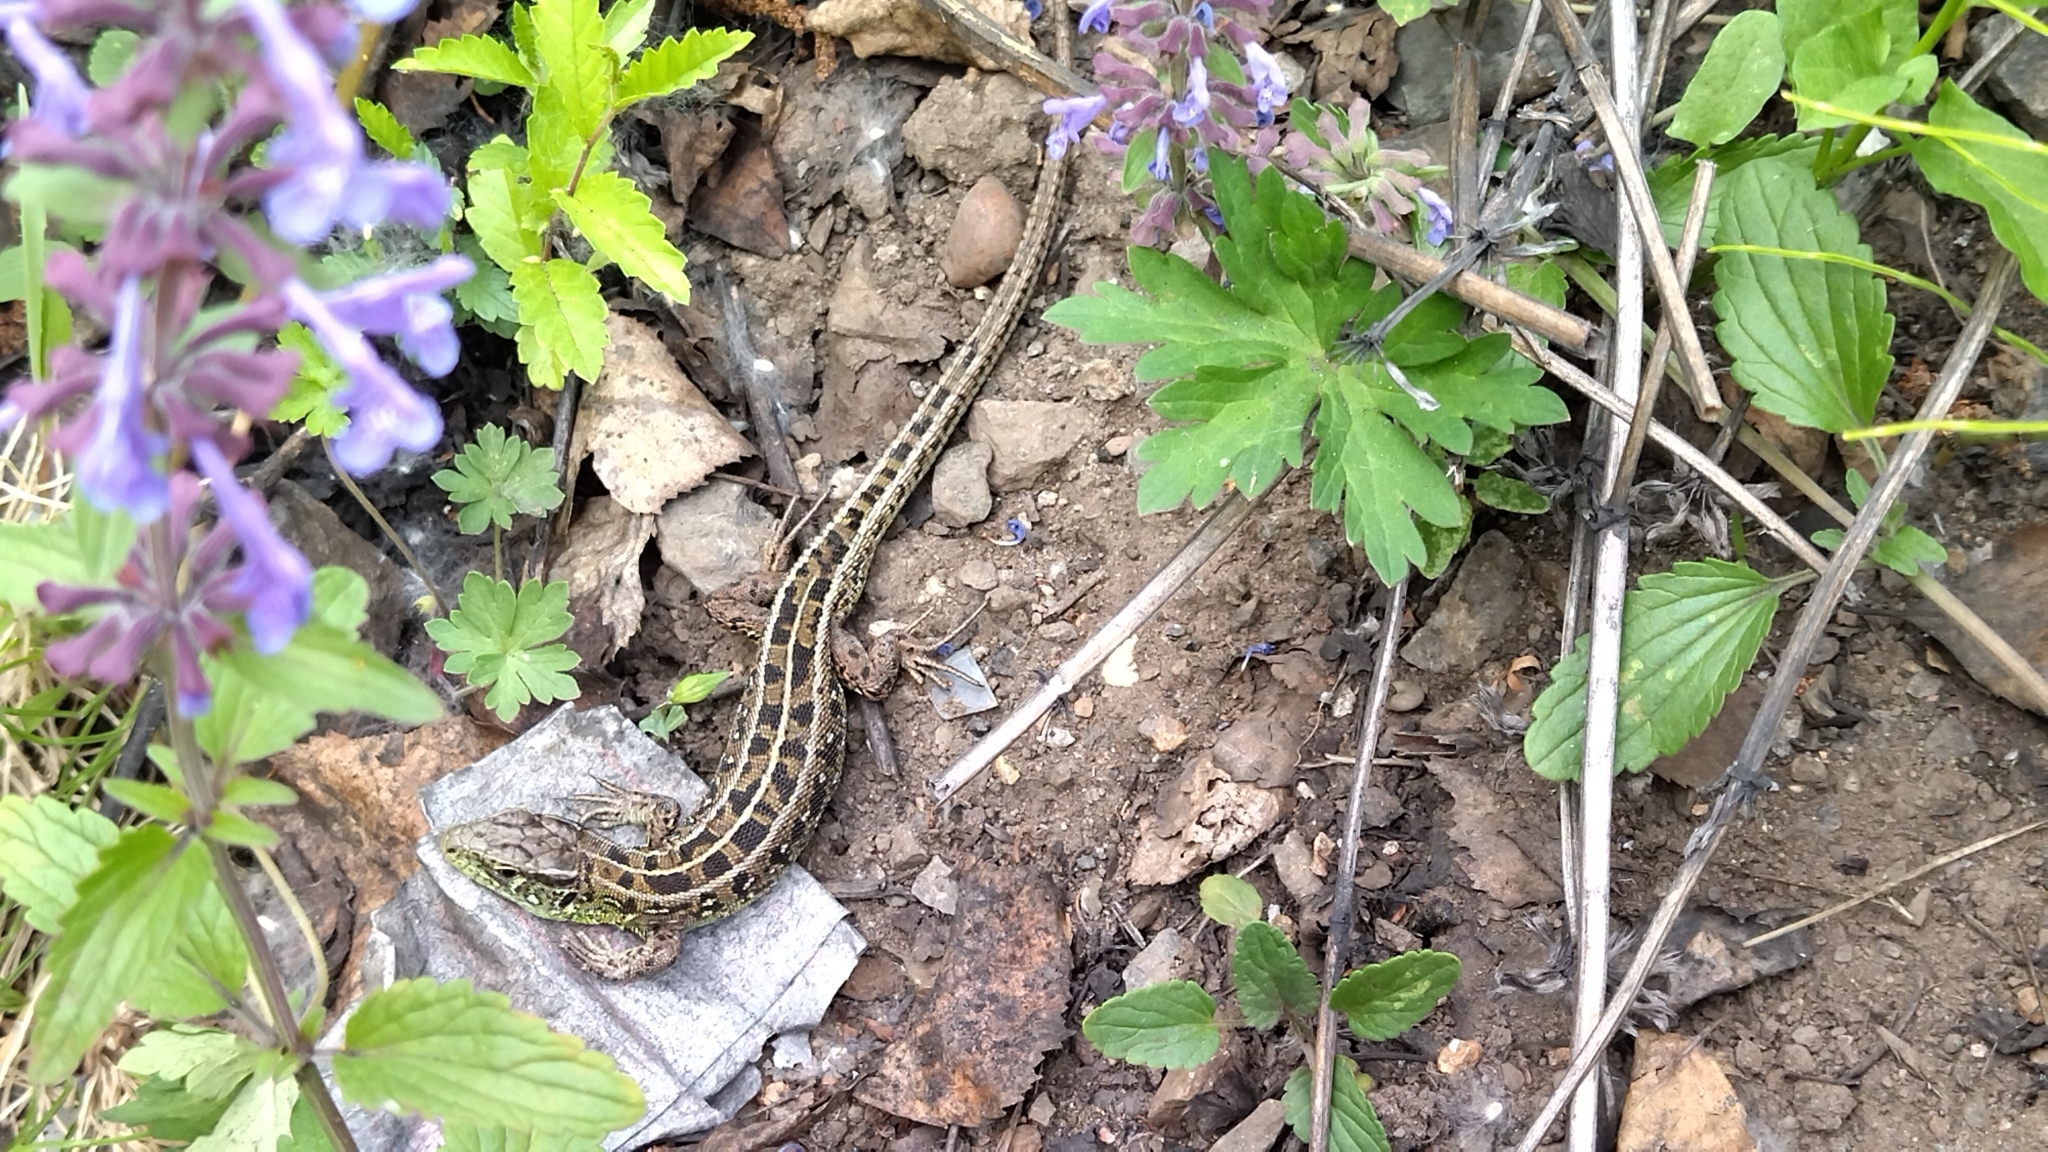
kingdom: Animalia
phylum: Chordata
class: Squamata
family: Lacertidae
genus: Lacerta
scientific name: Lacerta agilis
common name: Sand lizard
